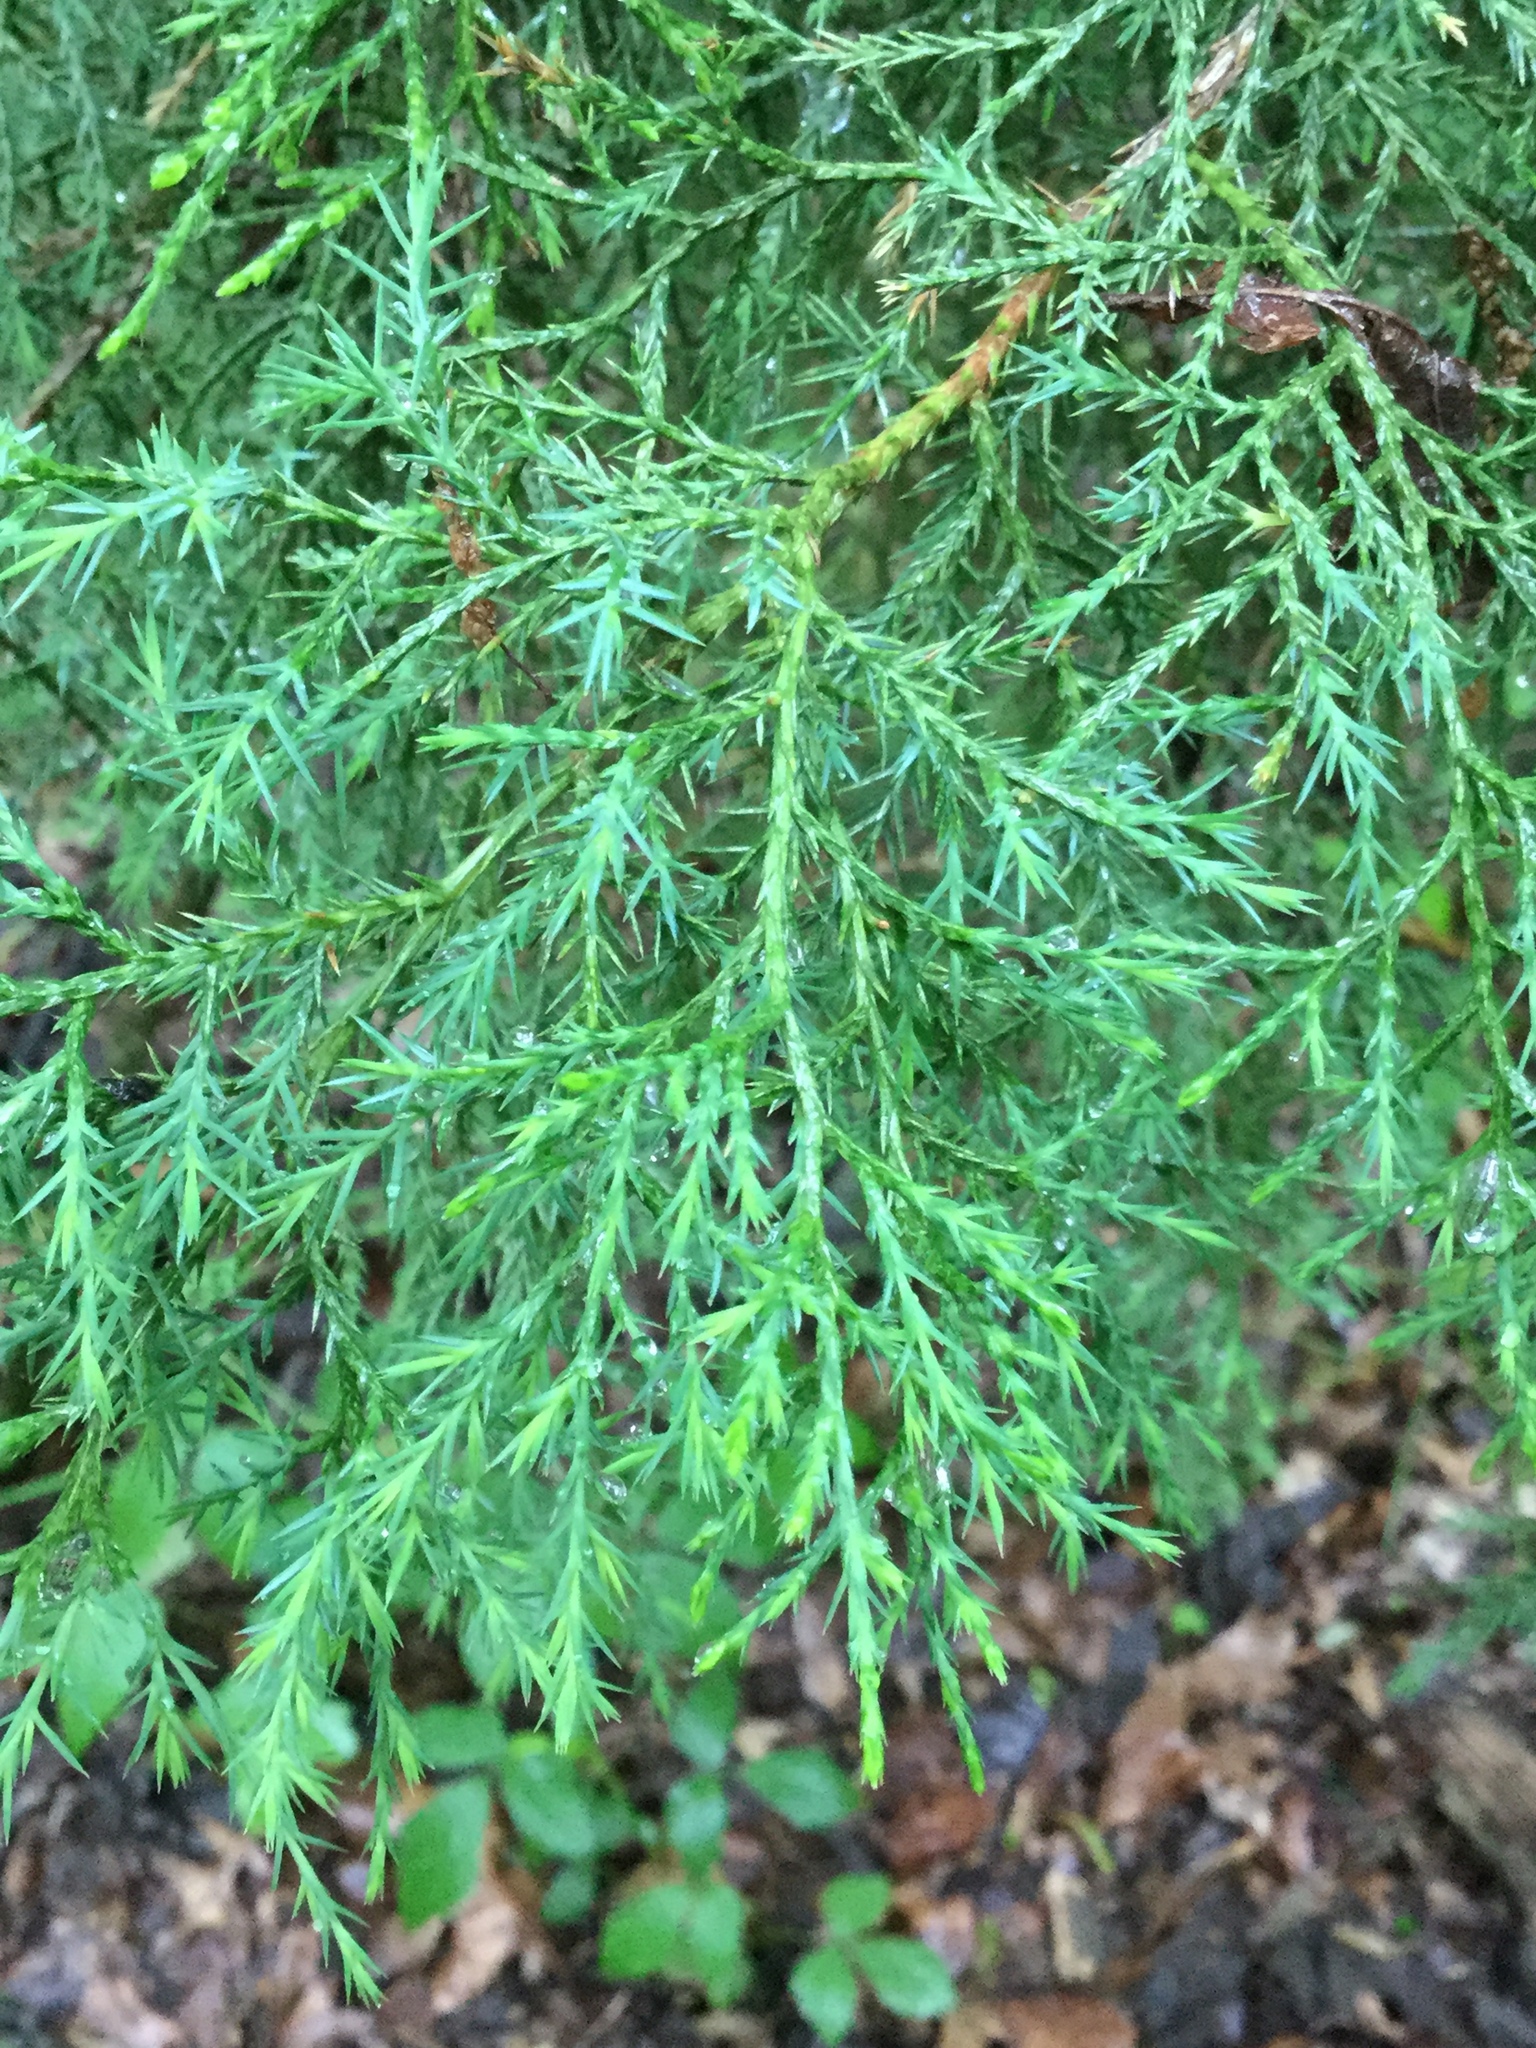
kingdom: Plantae
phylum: Tracheophyta
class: Pinopsida
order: Pinales
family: Cupressaceae
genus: Juniperus
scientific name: Juniperus virginiana
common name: Red juniper
